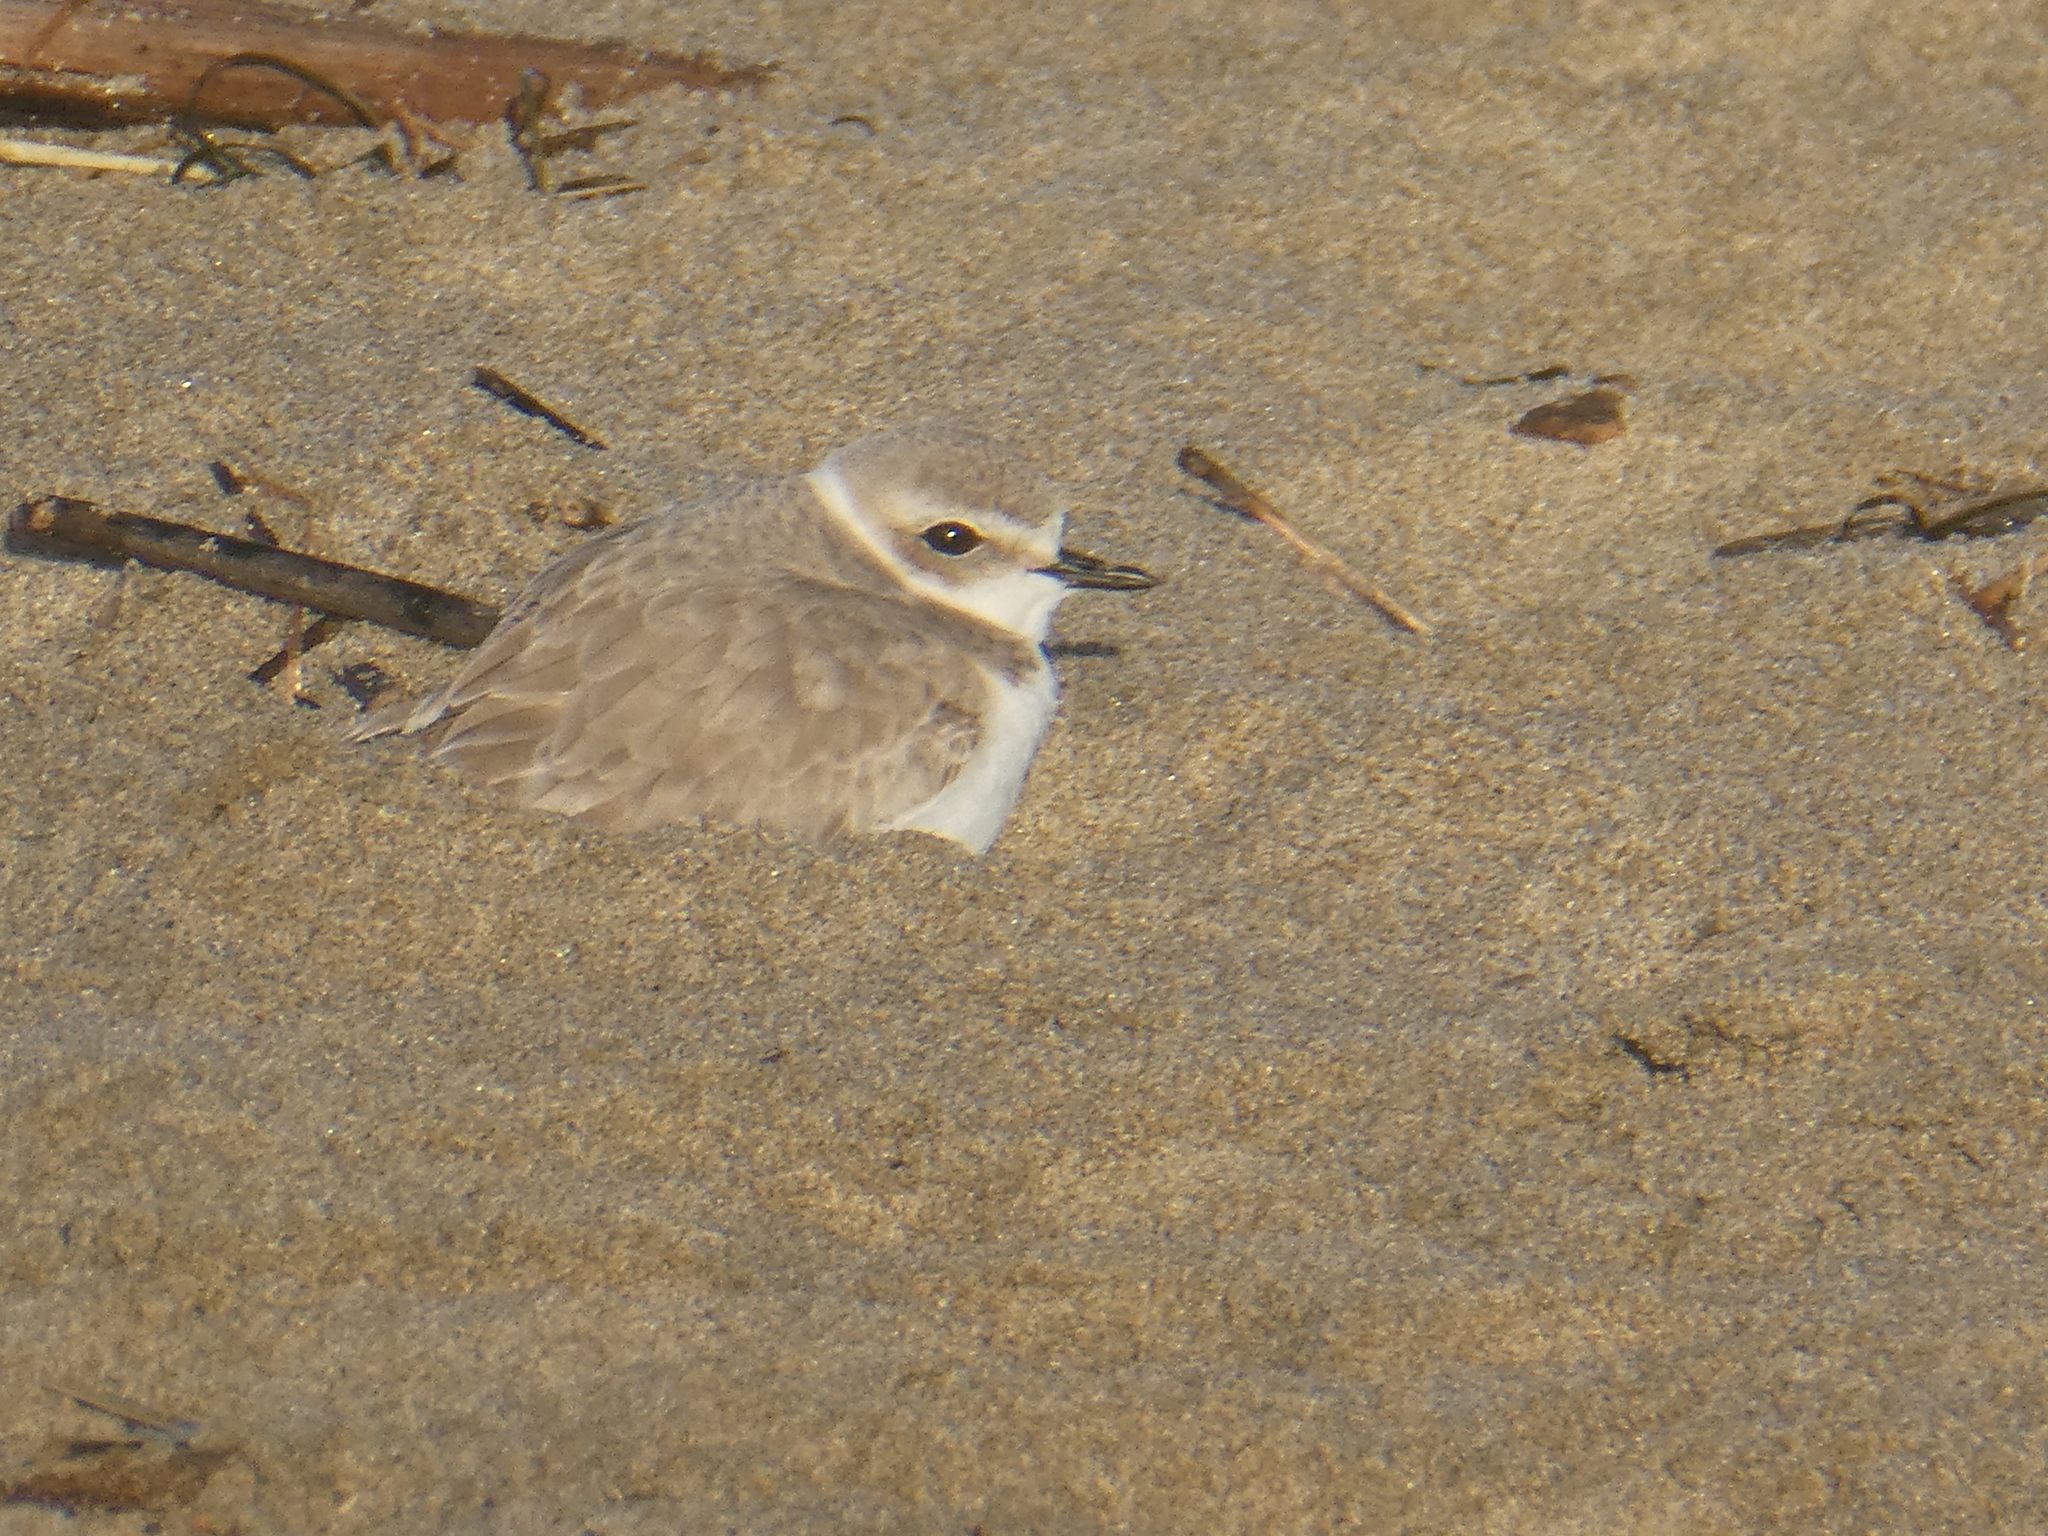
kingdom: Animalia
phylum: Chordata
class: Aves
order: Charadriiformes
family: Charadriidae
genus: Anarhynchus
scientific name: Anarhynchus
